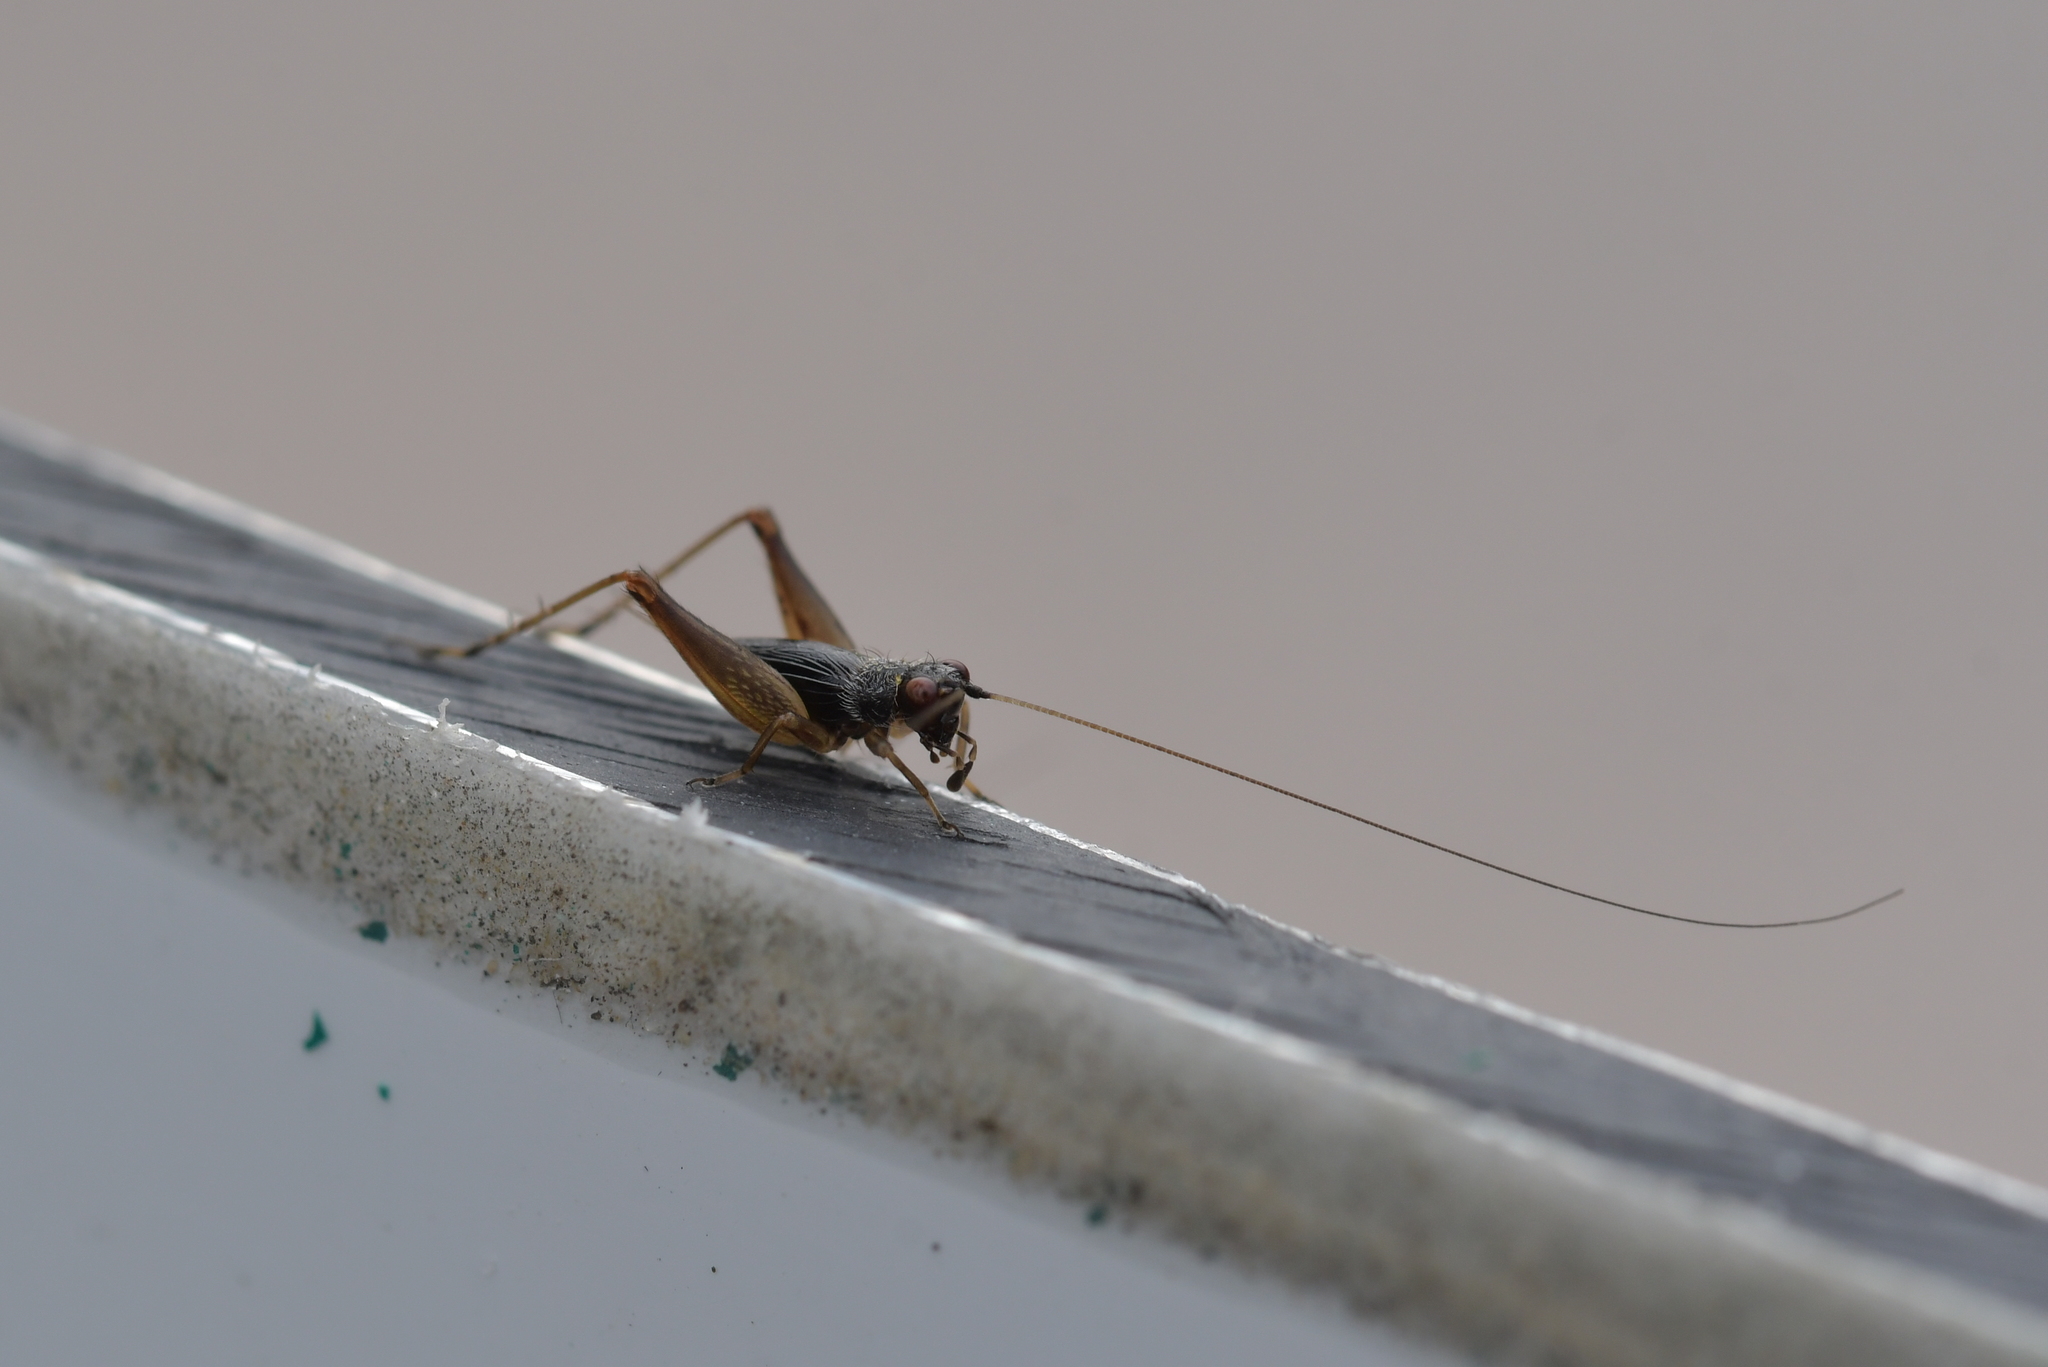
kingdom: Animalia
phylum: Arthropoda
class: Insecta
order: Orthoptera
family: Trigonidiidae
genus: Metioche
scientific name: Metioche maorica
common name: New zealand trig
